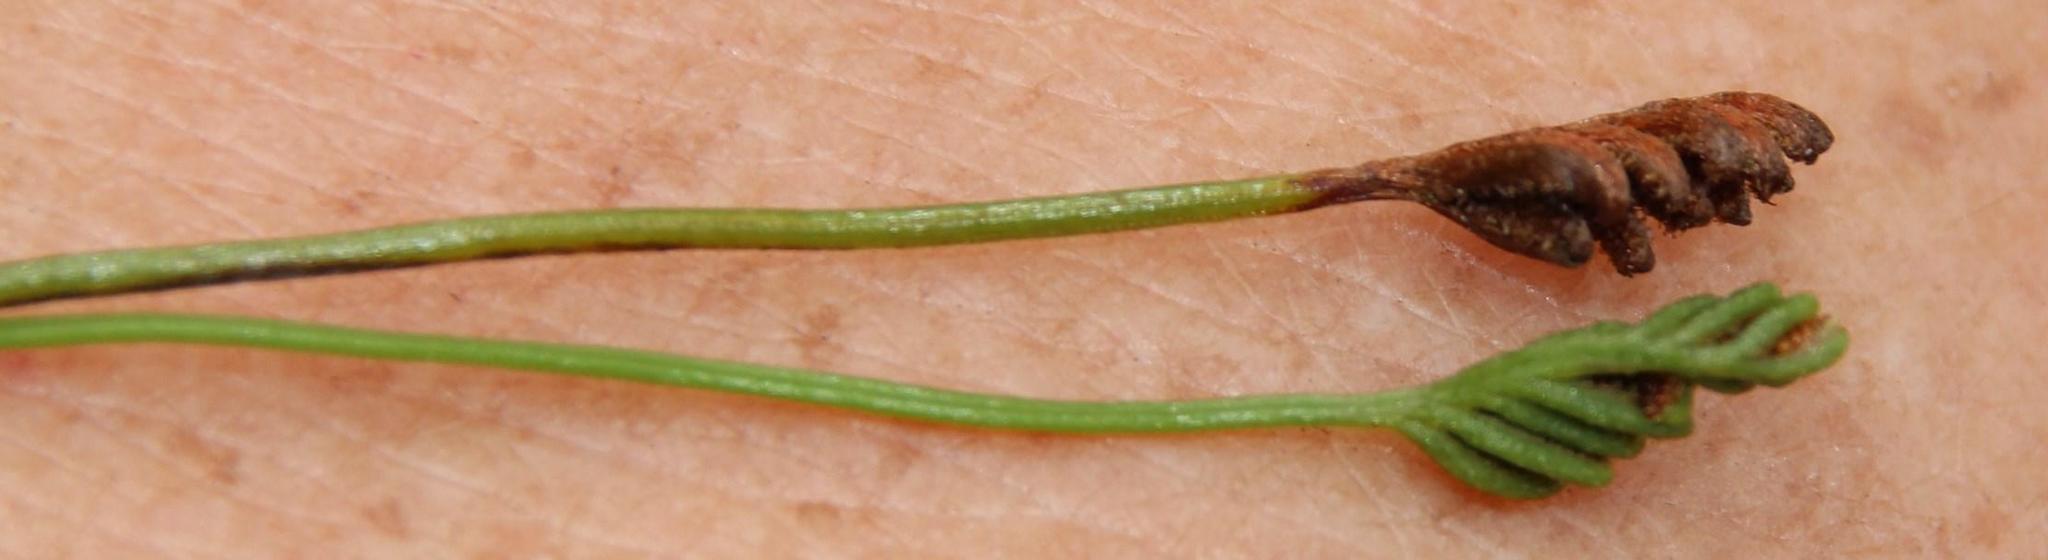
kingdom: Plantae
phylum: Tracheophyta
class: Polypodiopsida
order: Schizaeales
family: Schizaeaceae
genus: Microschizaea
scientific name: Microschizaea tenella
